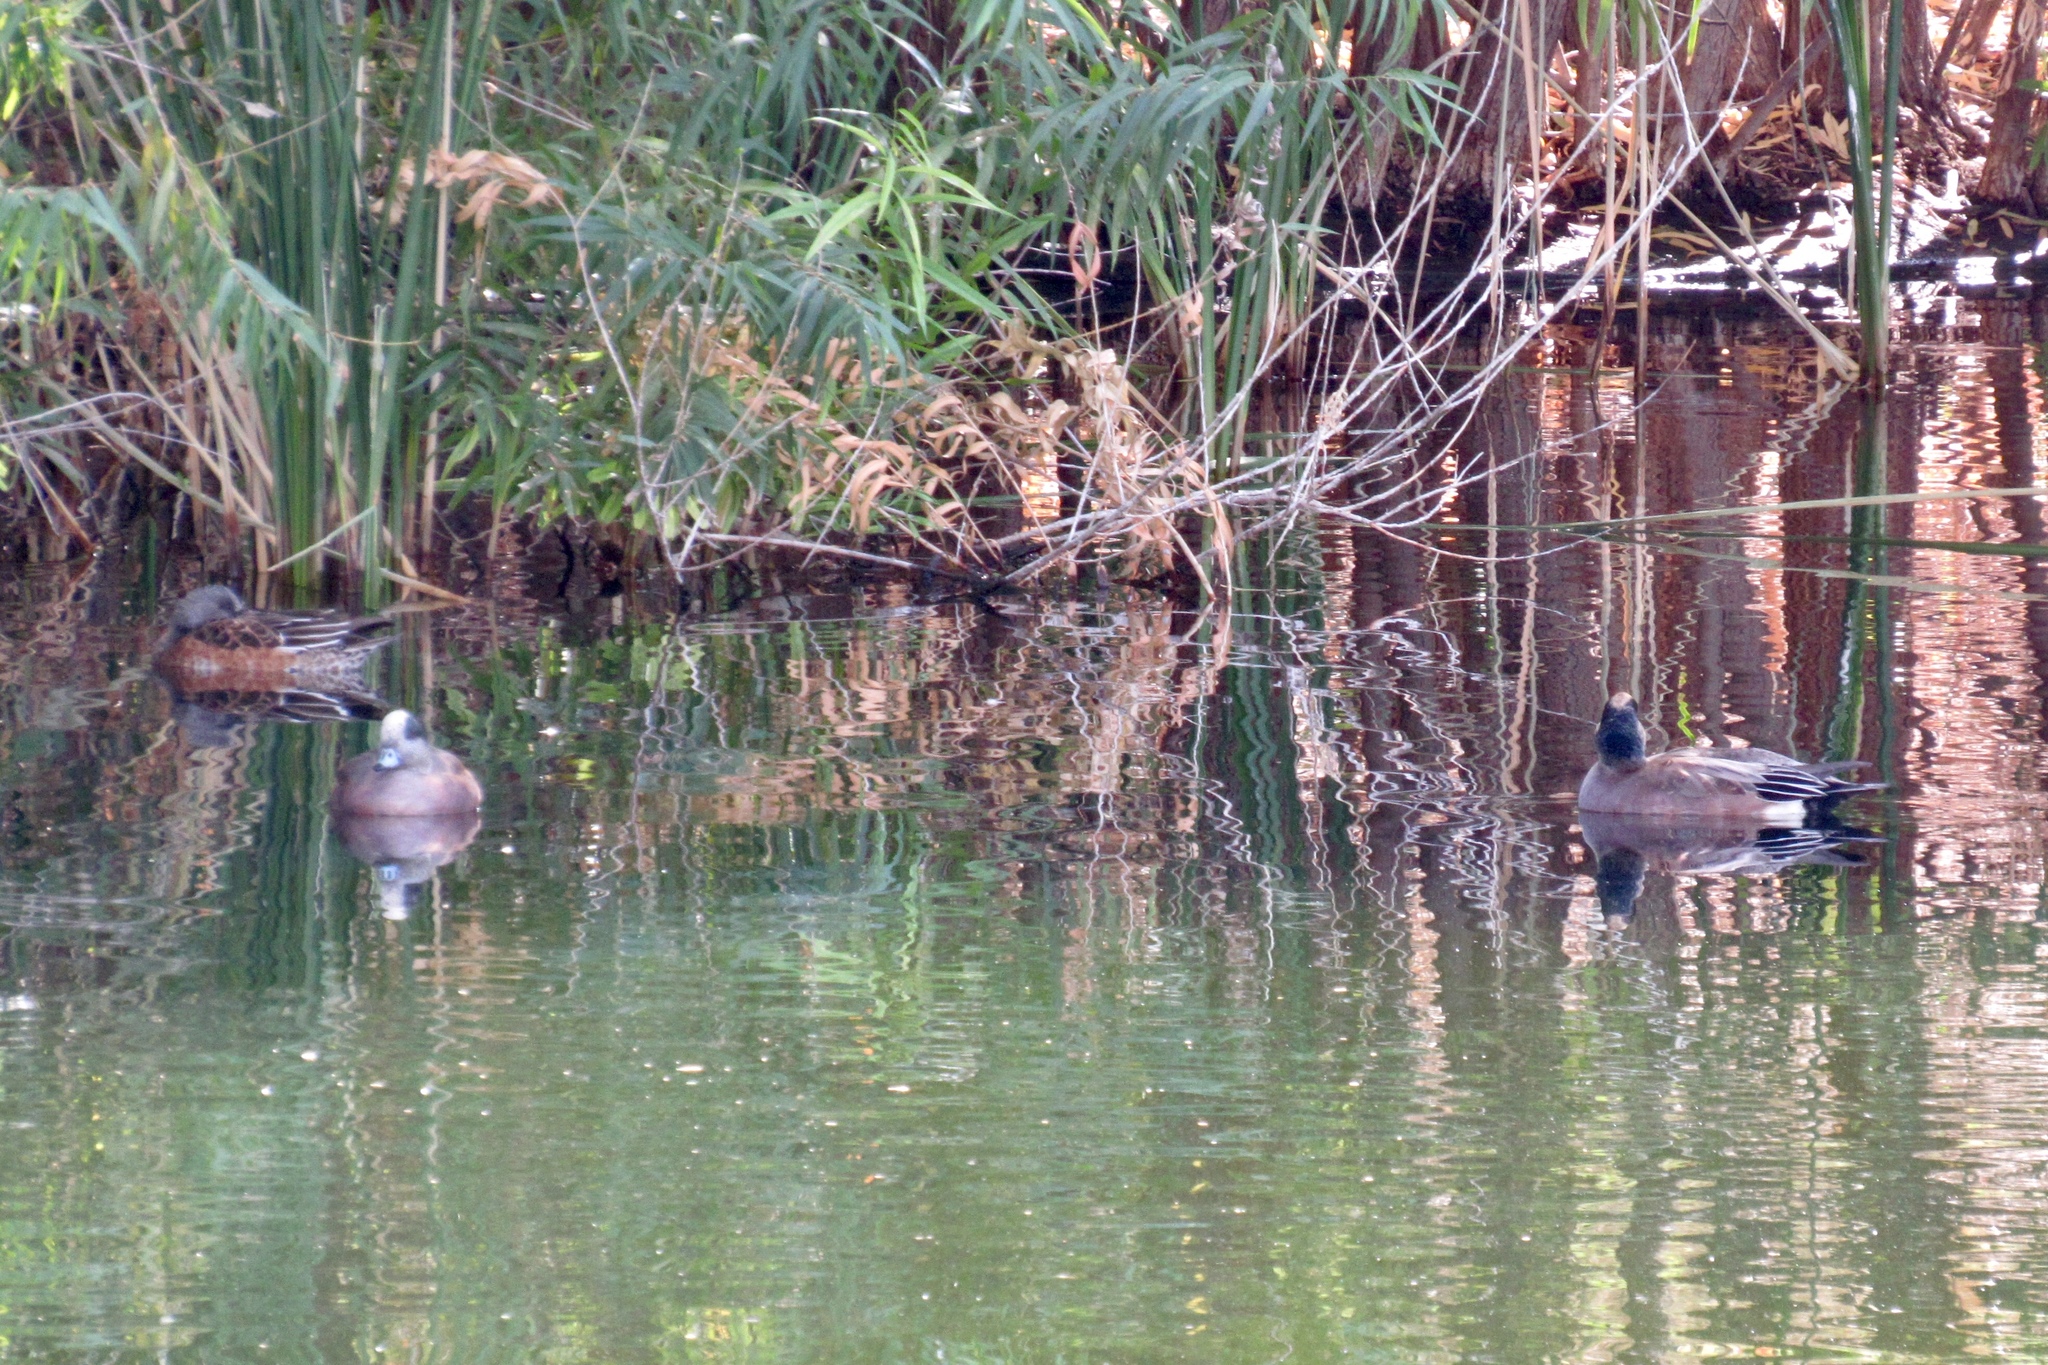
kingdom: Animalia
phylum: Chordata
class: Aves
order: Anseriformes
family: Anatidae
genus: Mareca
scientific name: Mareca americana
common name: American wigeon
